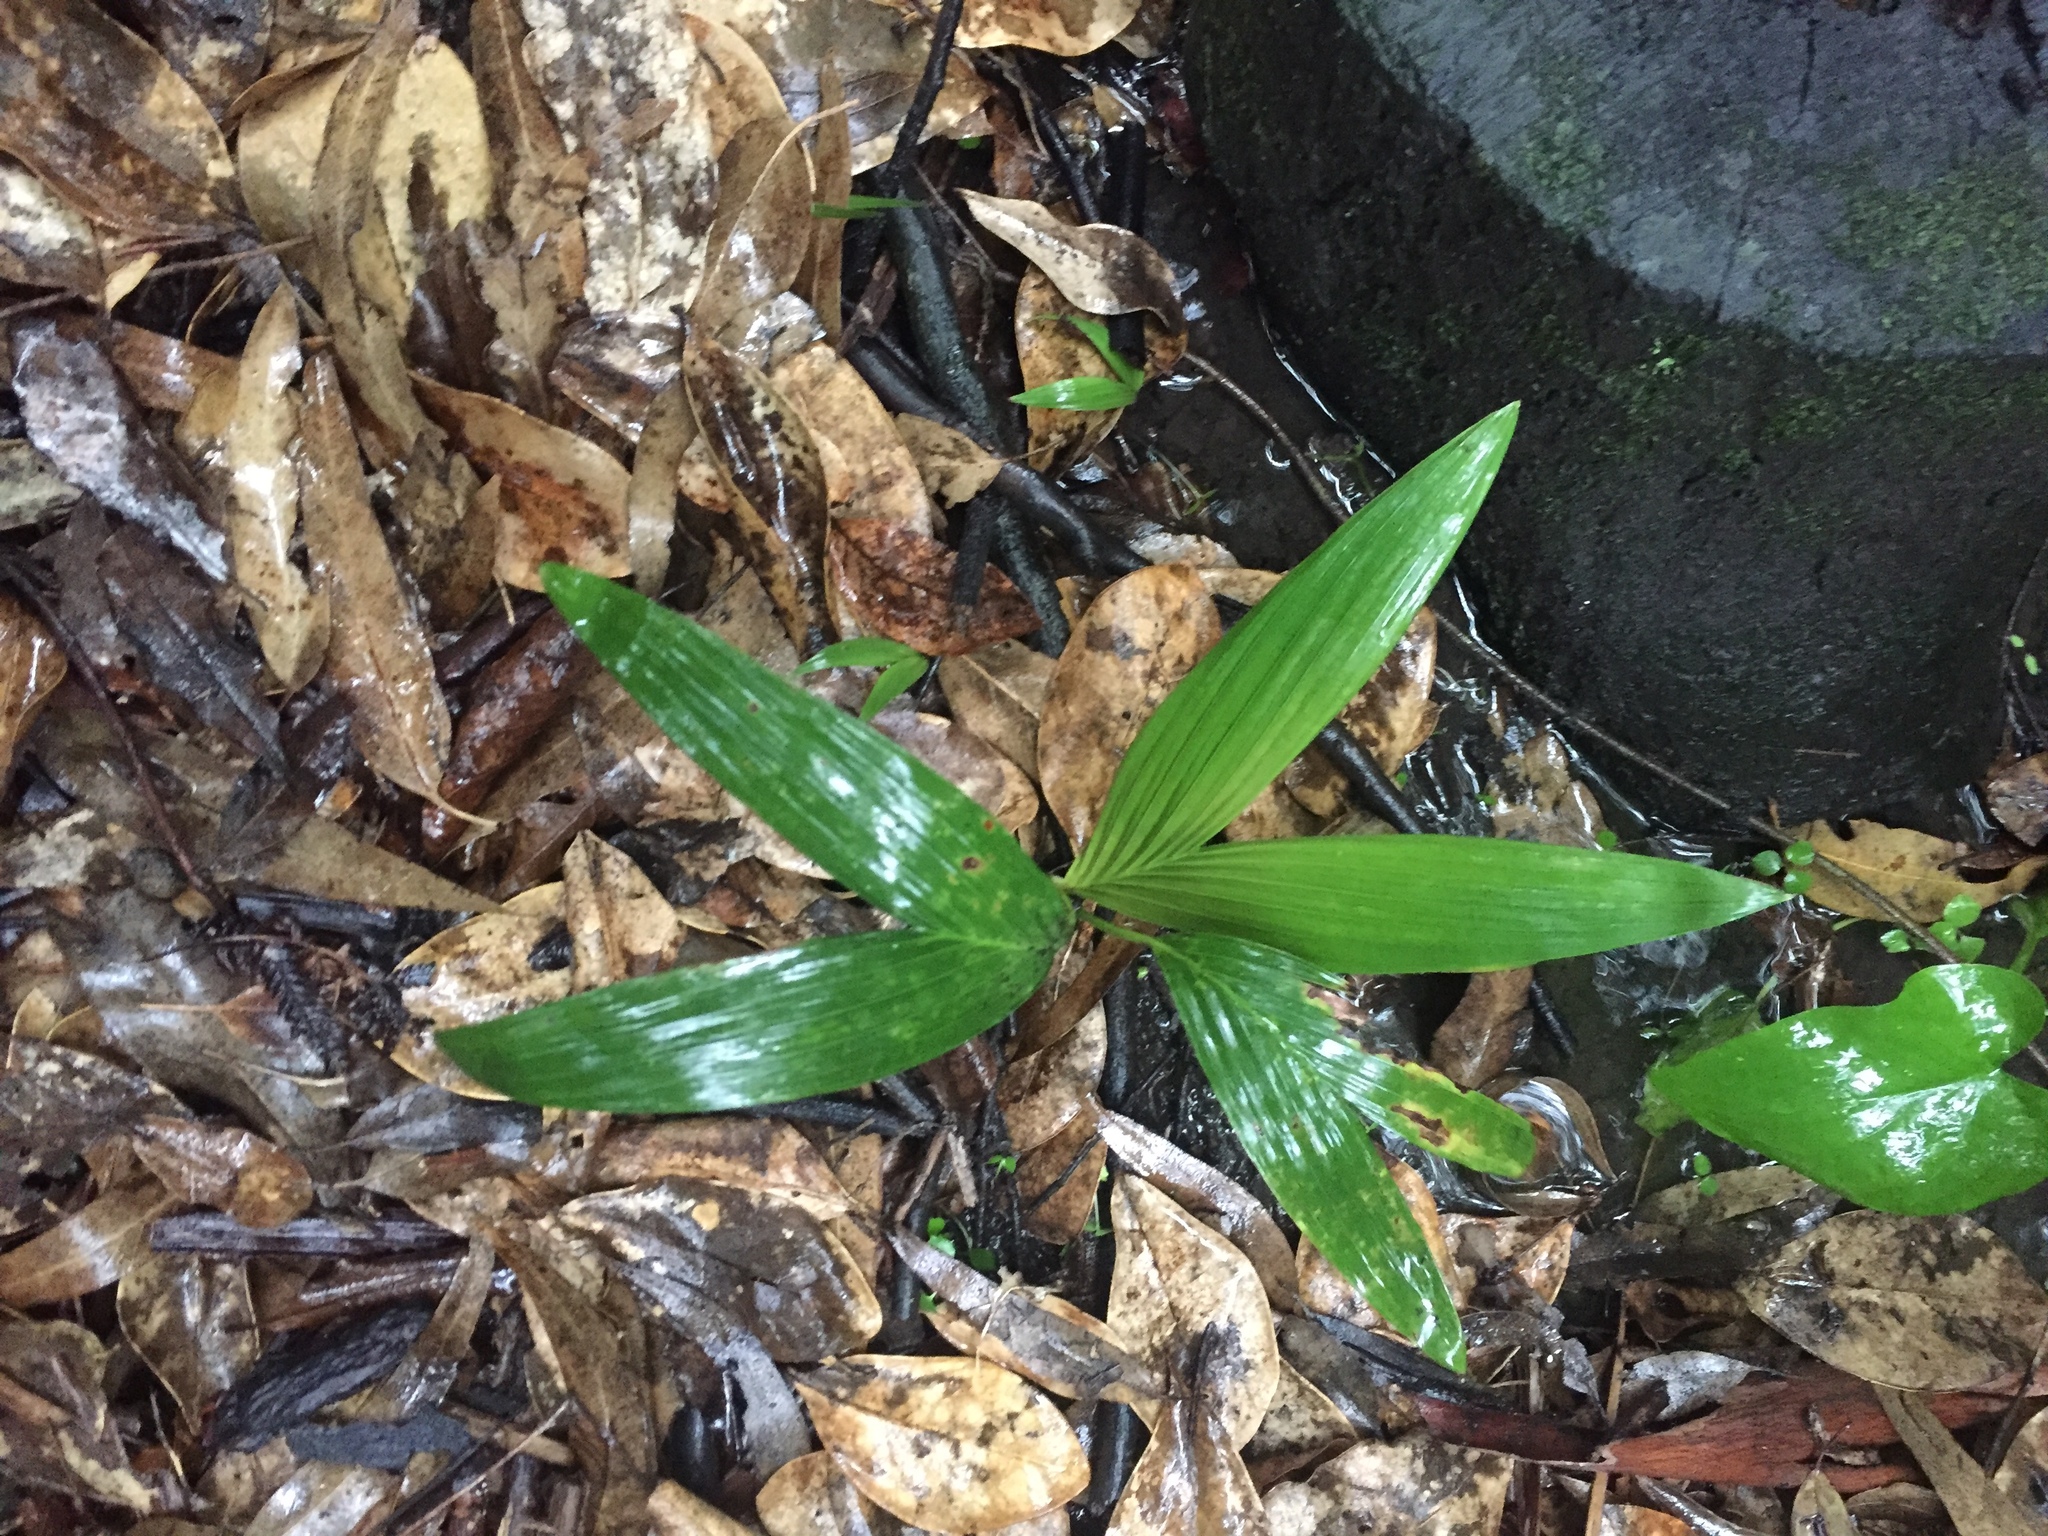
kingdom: Plantae
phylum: Tracheophyta
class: Liliopsida
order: Arecales
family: Arecaceae
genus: Archontophoenix
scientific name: Archontophoenix cunninghamiana
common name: Piccabeen bangalow palm
